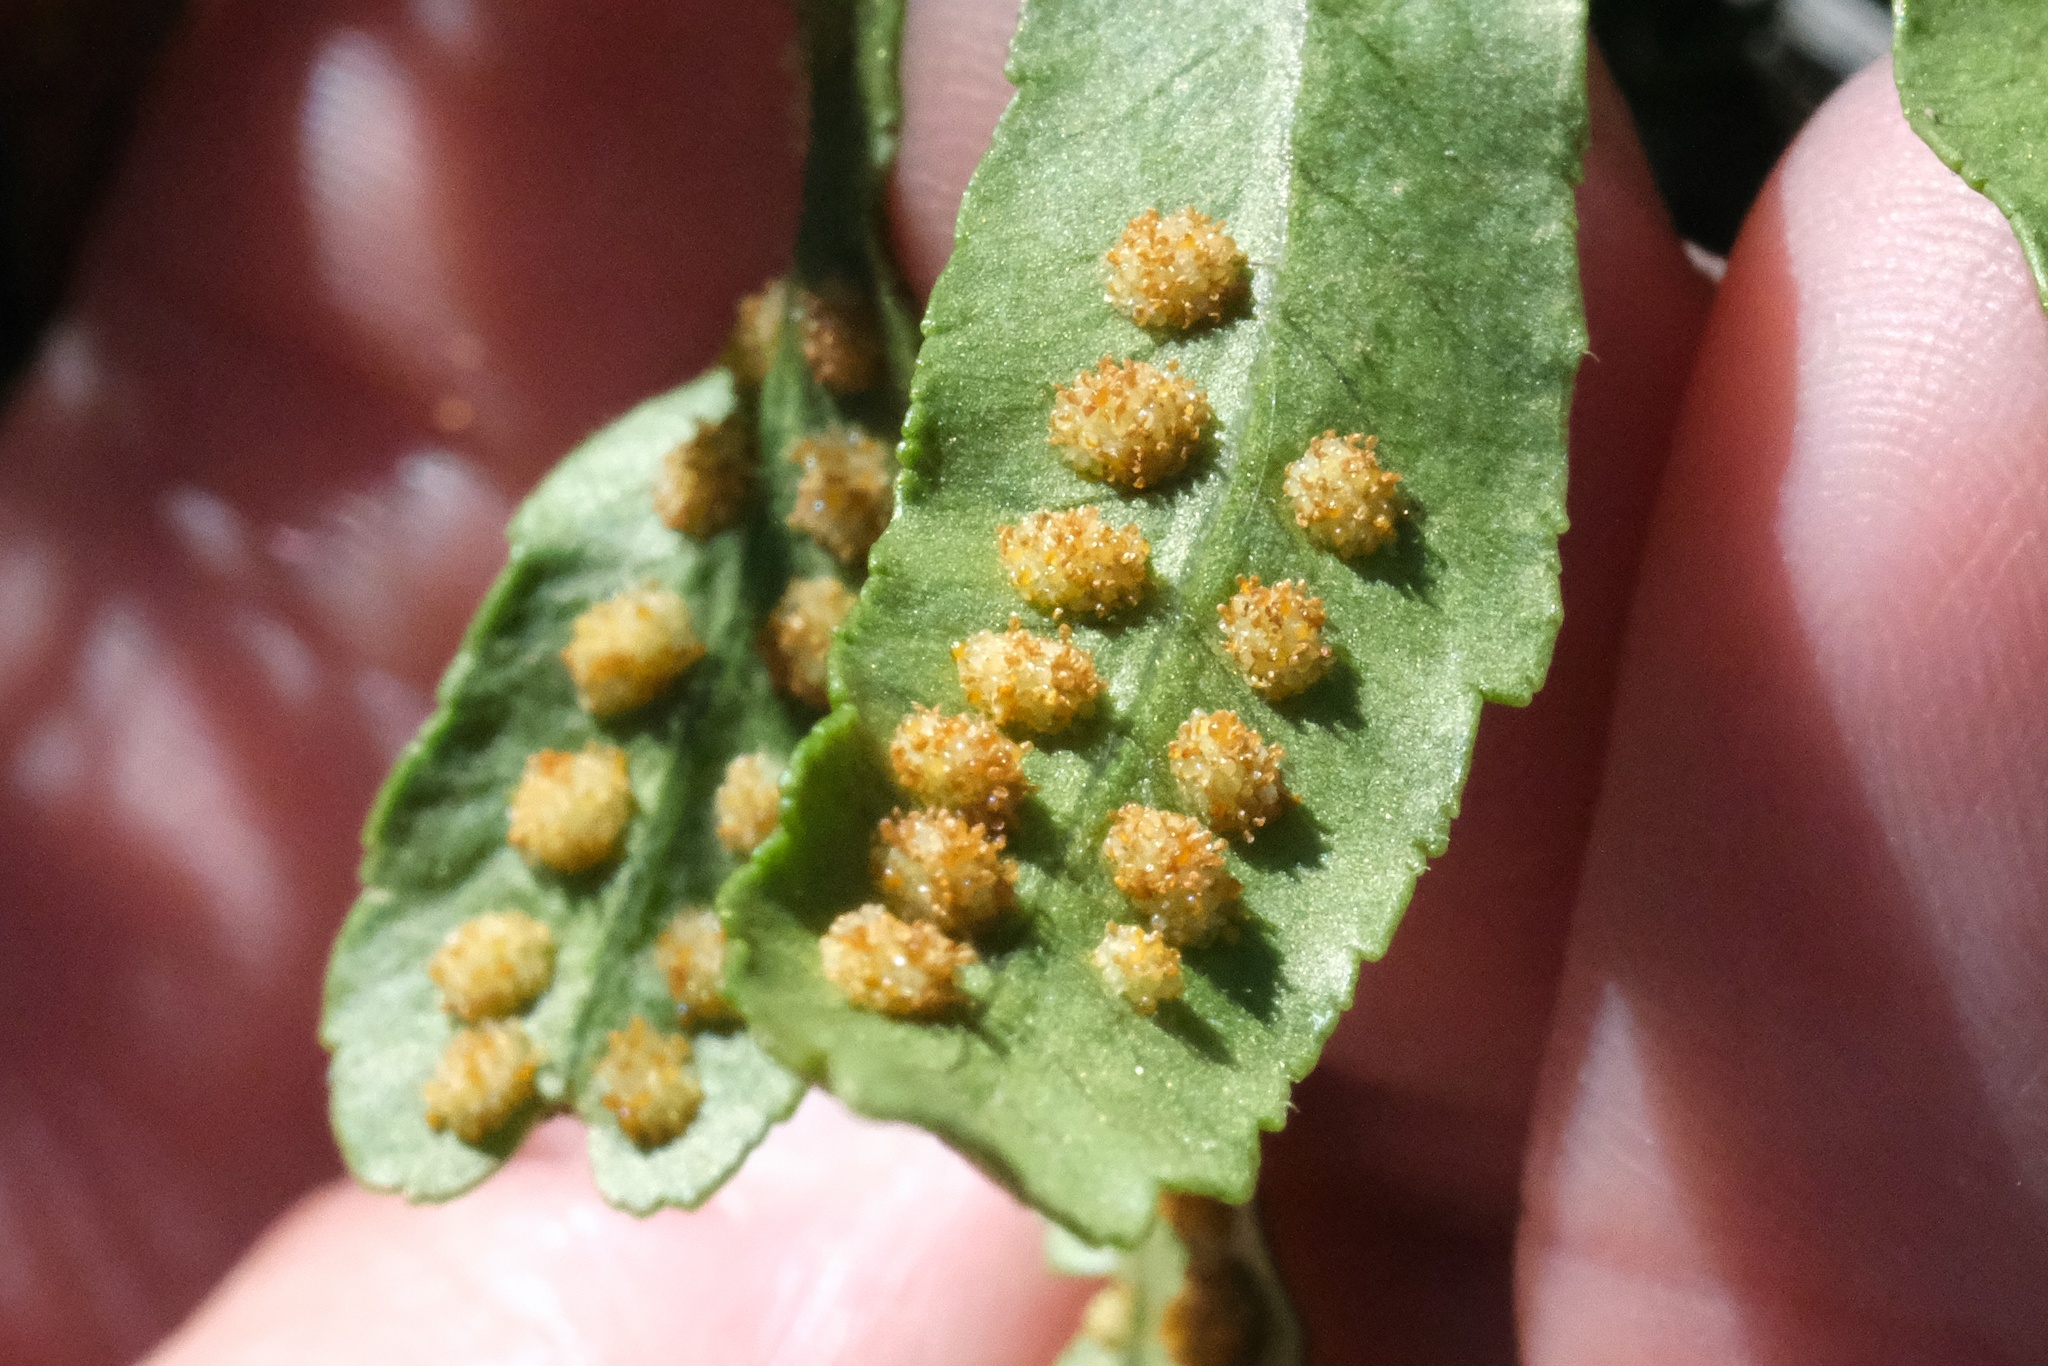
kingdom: Plantae
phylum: Tracheophyta
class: Polypodiopsida
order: Polypodiales
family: Polypodiaceae
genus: Polypodium
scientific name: Polypodium californicum
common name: California polypody
